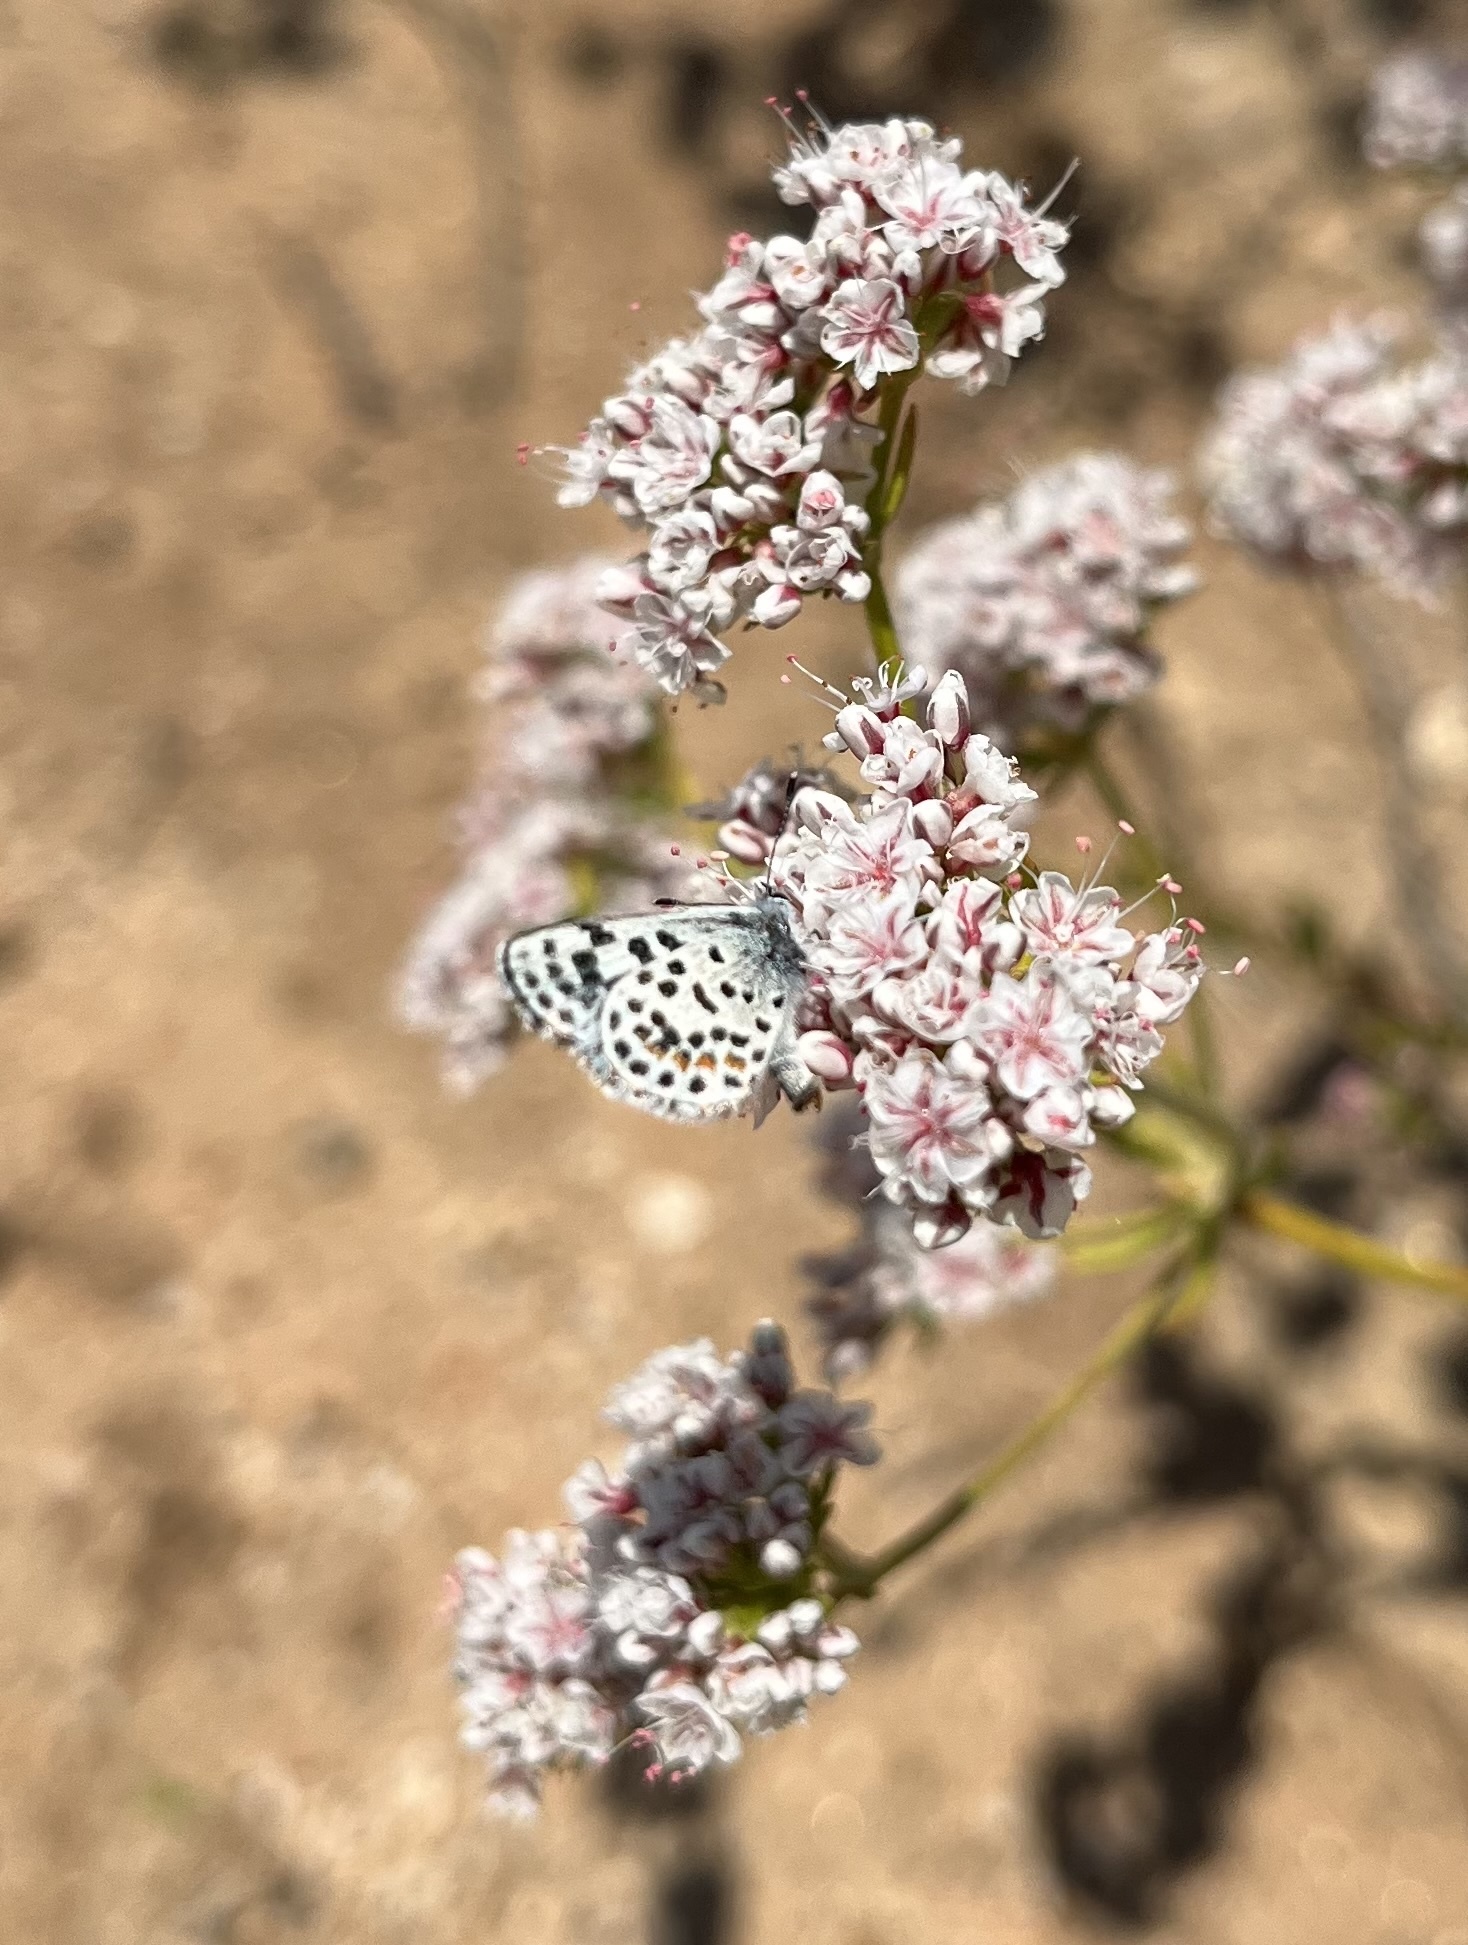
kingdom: Animalia
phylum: Arthropoda
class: Insecta
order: Lepidoptera
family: Lycaenidae
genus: Philotes
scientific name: Philotes bernardino
